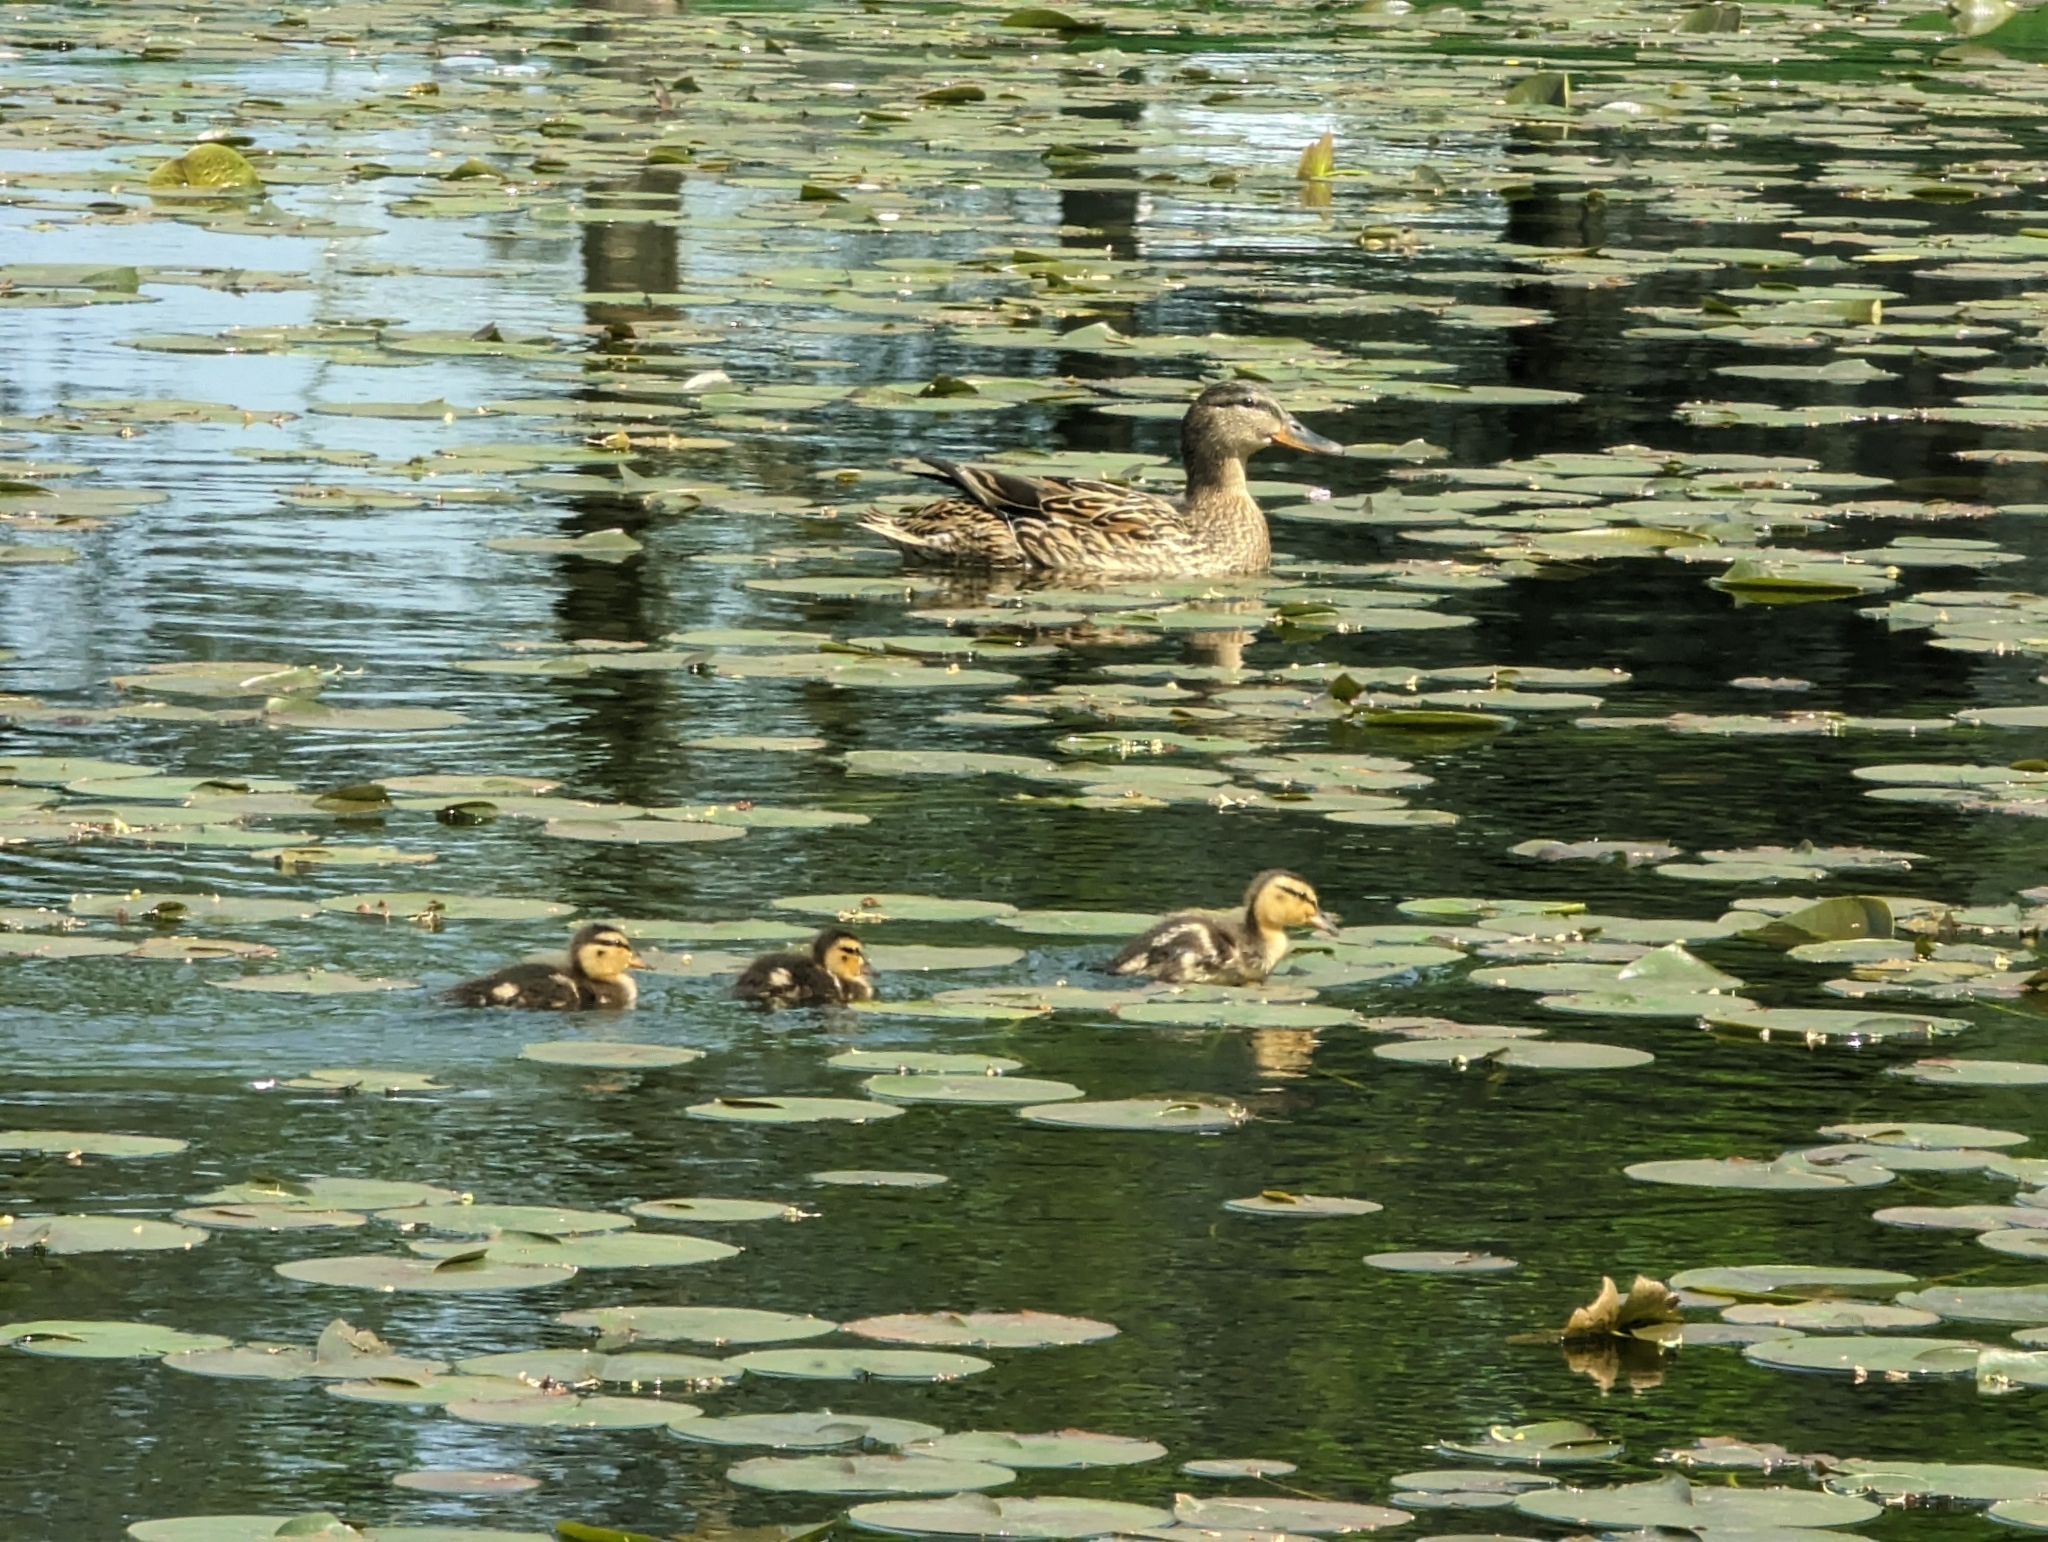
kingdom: Animalia
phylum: Chordata
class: Aves
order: Anseriformes
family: Anatidae
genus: Anas
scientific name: Anas platyrhynchos
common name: Mallard
